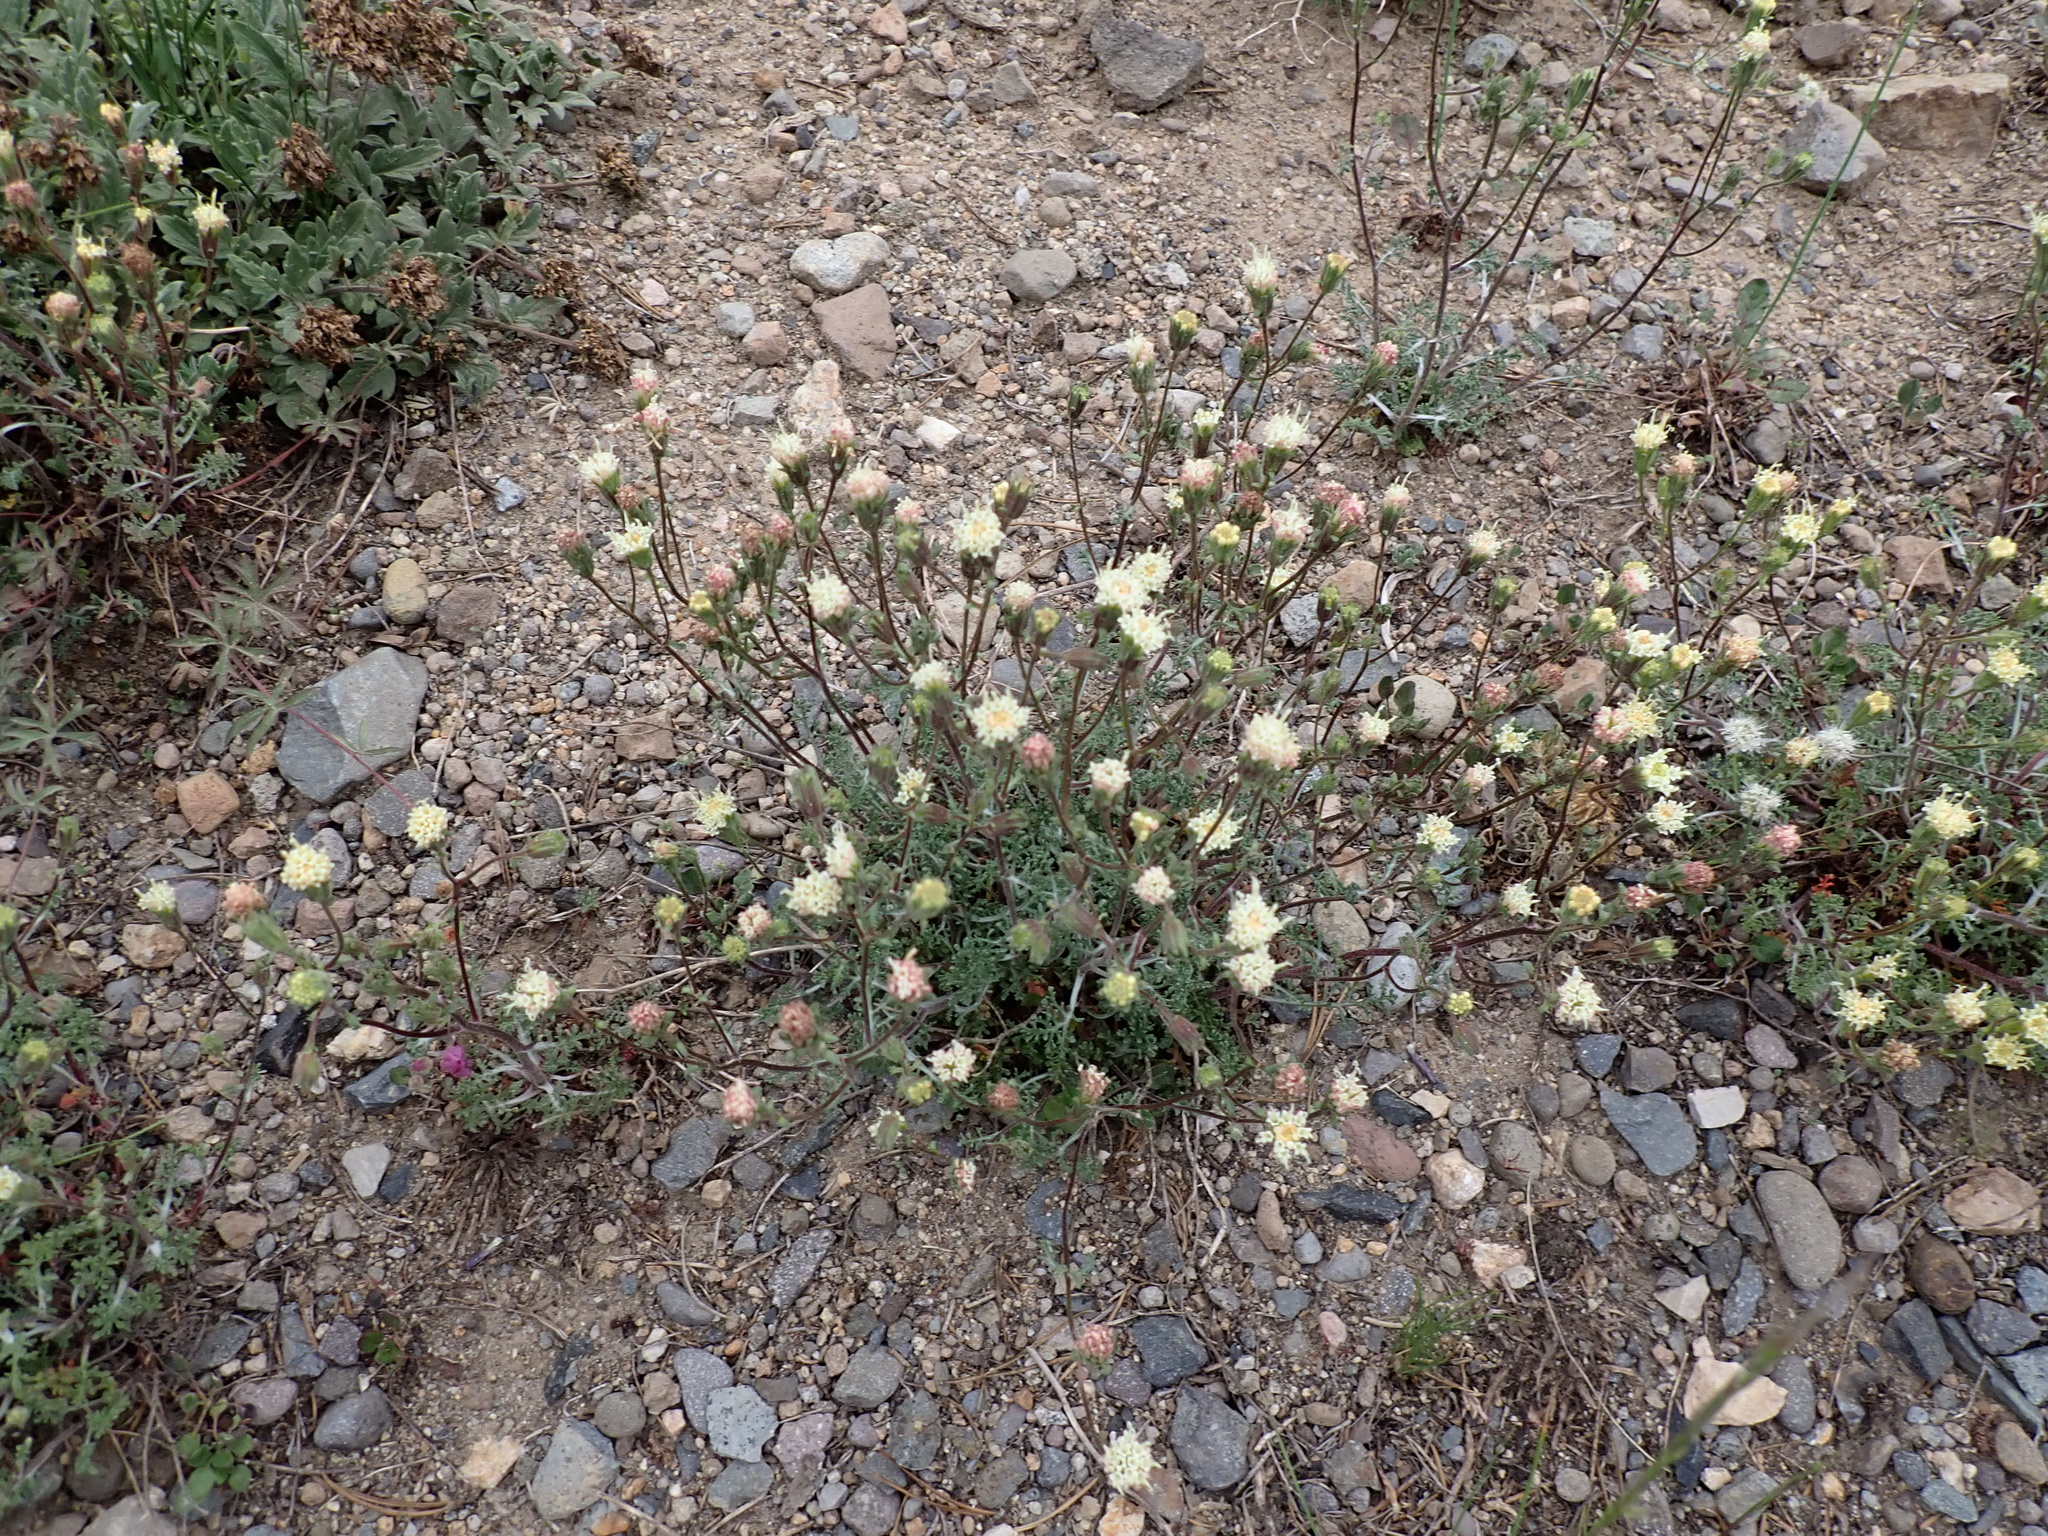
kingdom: Plantae
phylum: Tracheophyta
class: Magnoliopsida
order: Asterales
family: Asteraceae
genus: Chaenactis
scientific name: Chaenactis douglasii
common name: Hoary pincushion
